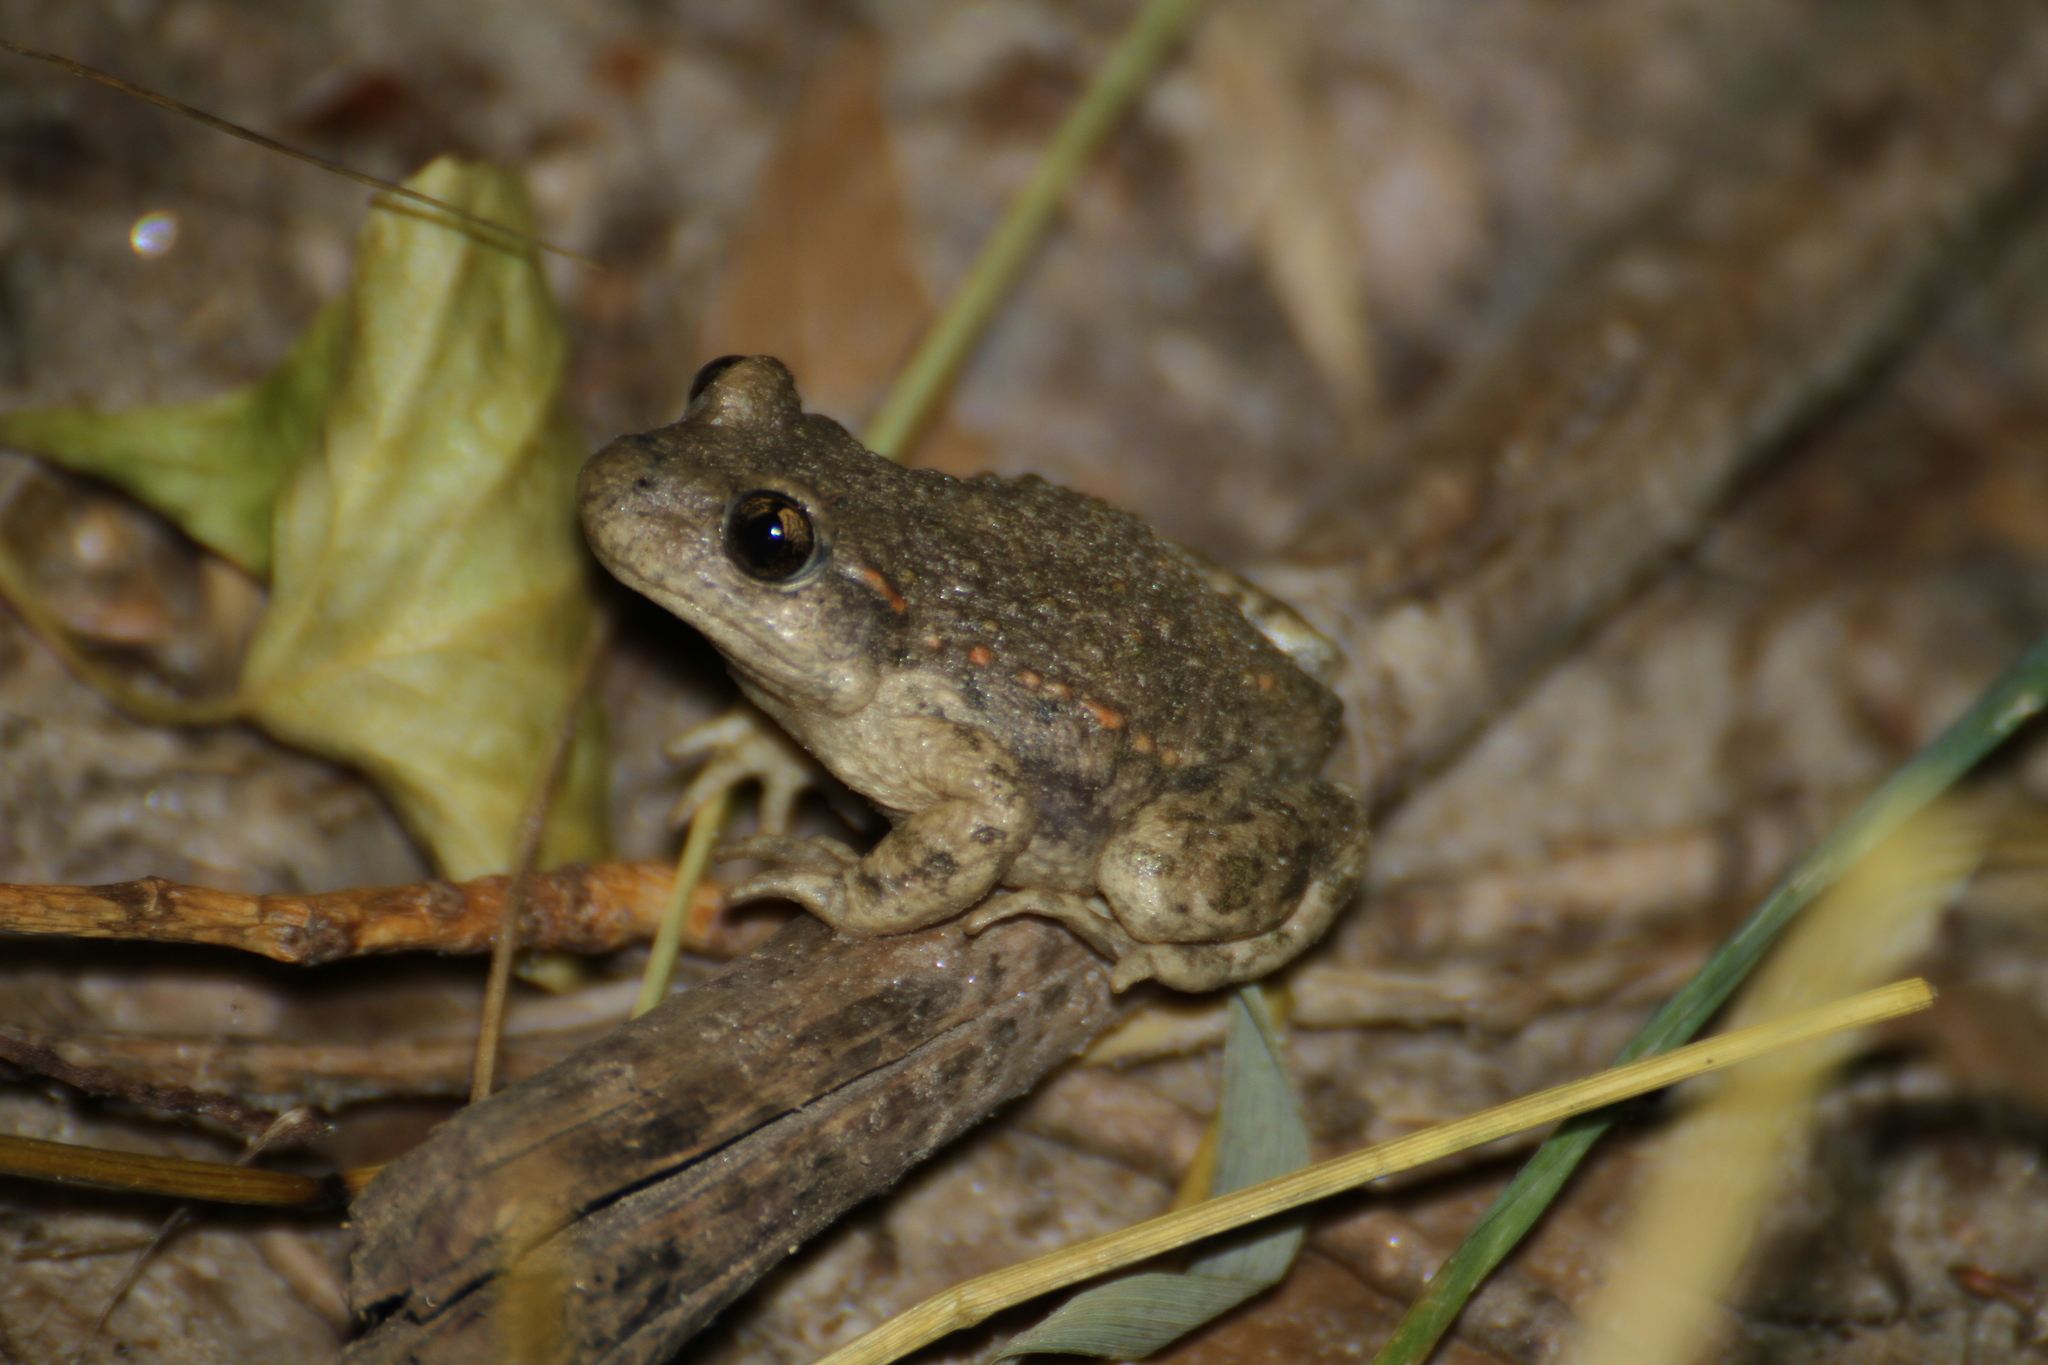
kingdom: Animalia
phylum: Chordata
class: Amphibia
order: Anura
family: Alytidae
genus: Alytes
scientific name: Alytes obstetricans
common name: Midwife toad
